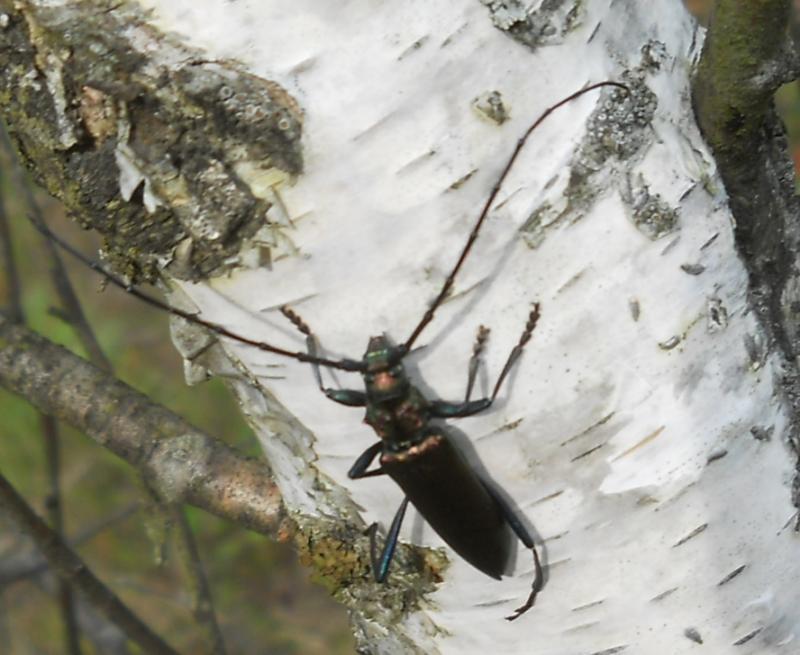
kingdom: Animalia
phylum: Arthropoda
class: Insecta
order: Coleoptera
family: Cerambycidae
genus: Aromia
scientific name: Aromia moschata
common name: Musk beetle
